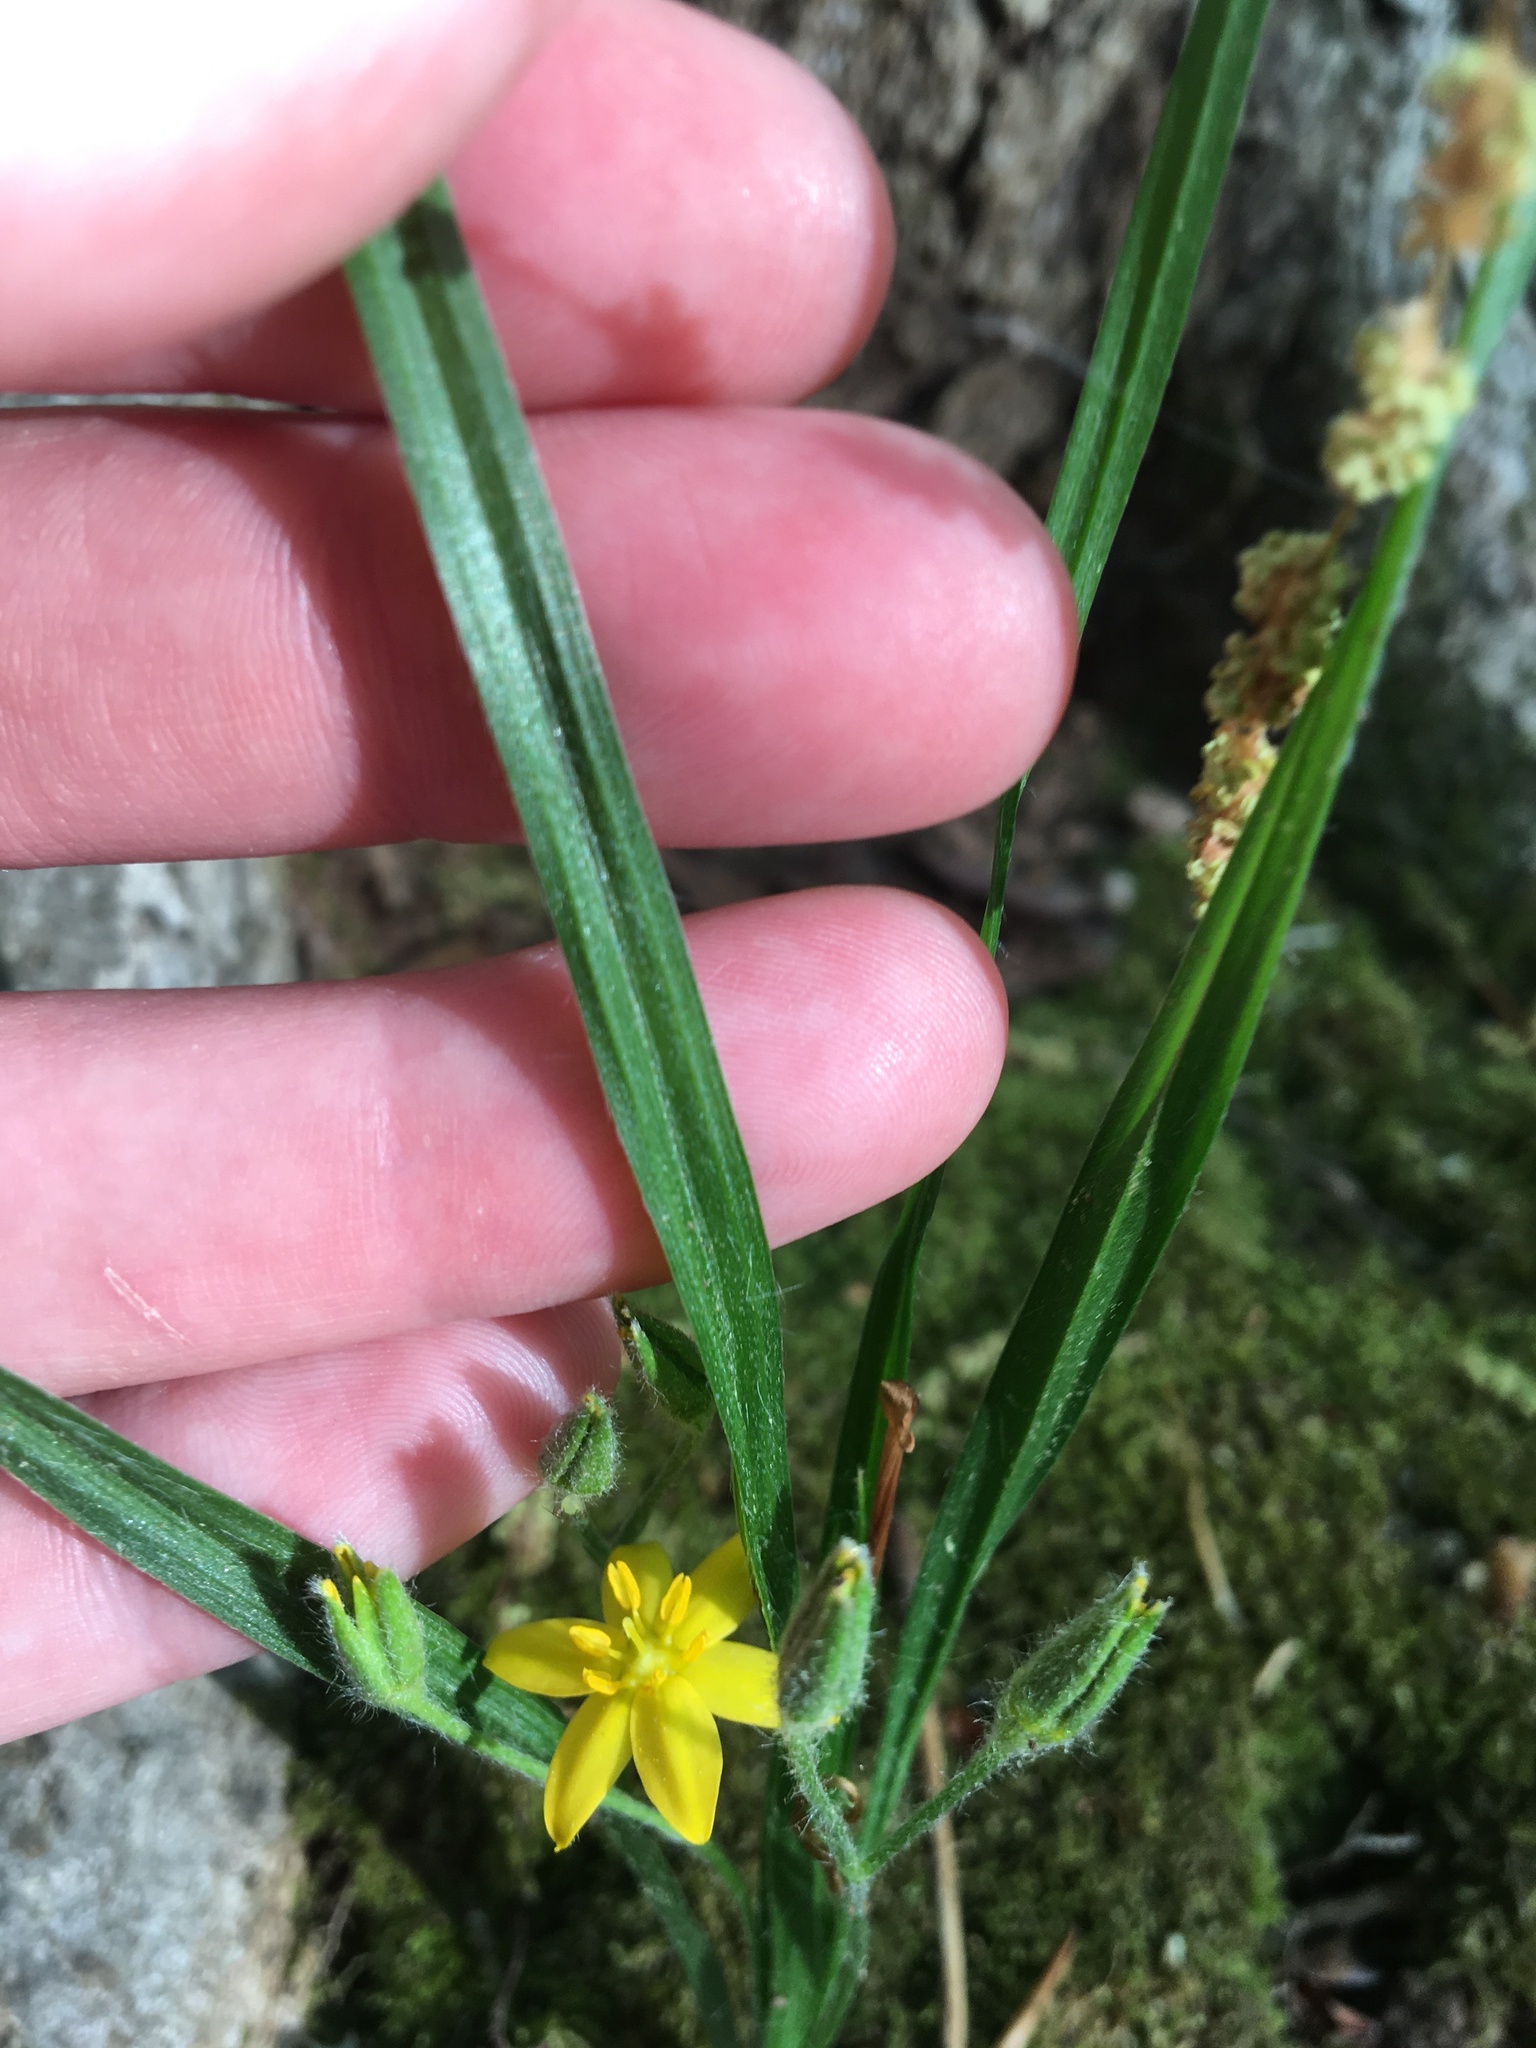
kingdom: Plantae
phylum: Tracheophyta
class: Liliopsida
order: Asparagales
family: Hypoxidaceae
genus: Hypoxis
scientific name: Hypoxis hirsuta
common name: Common goldstar
